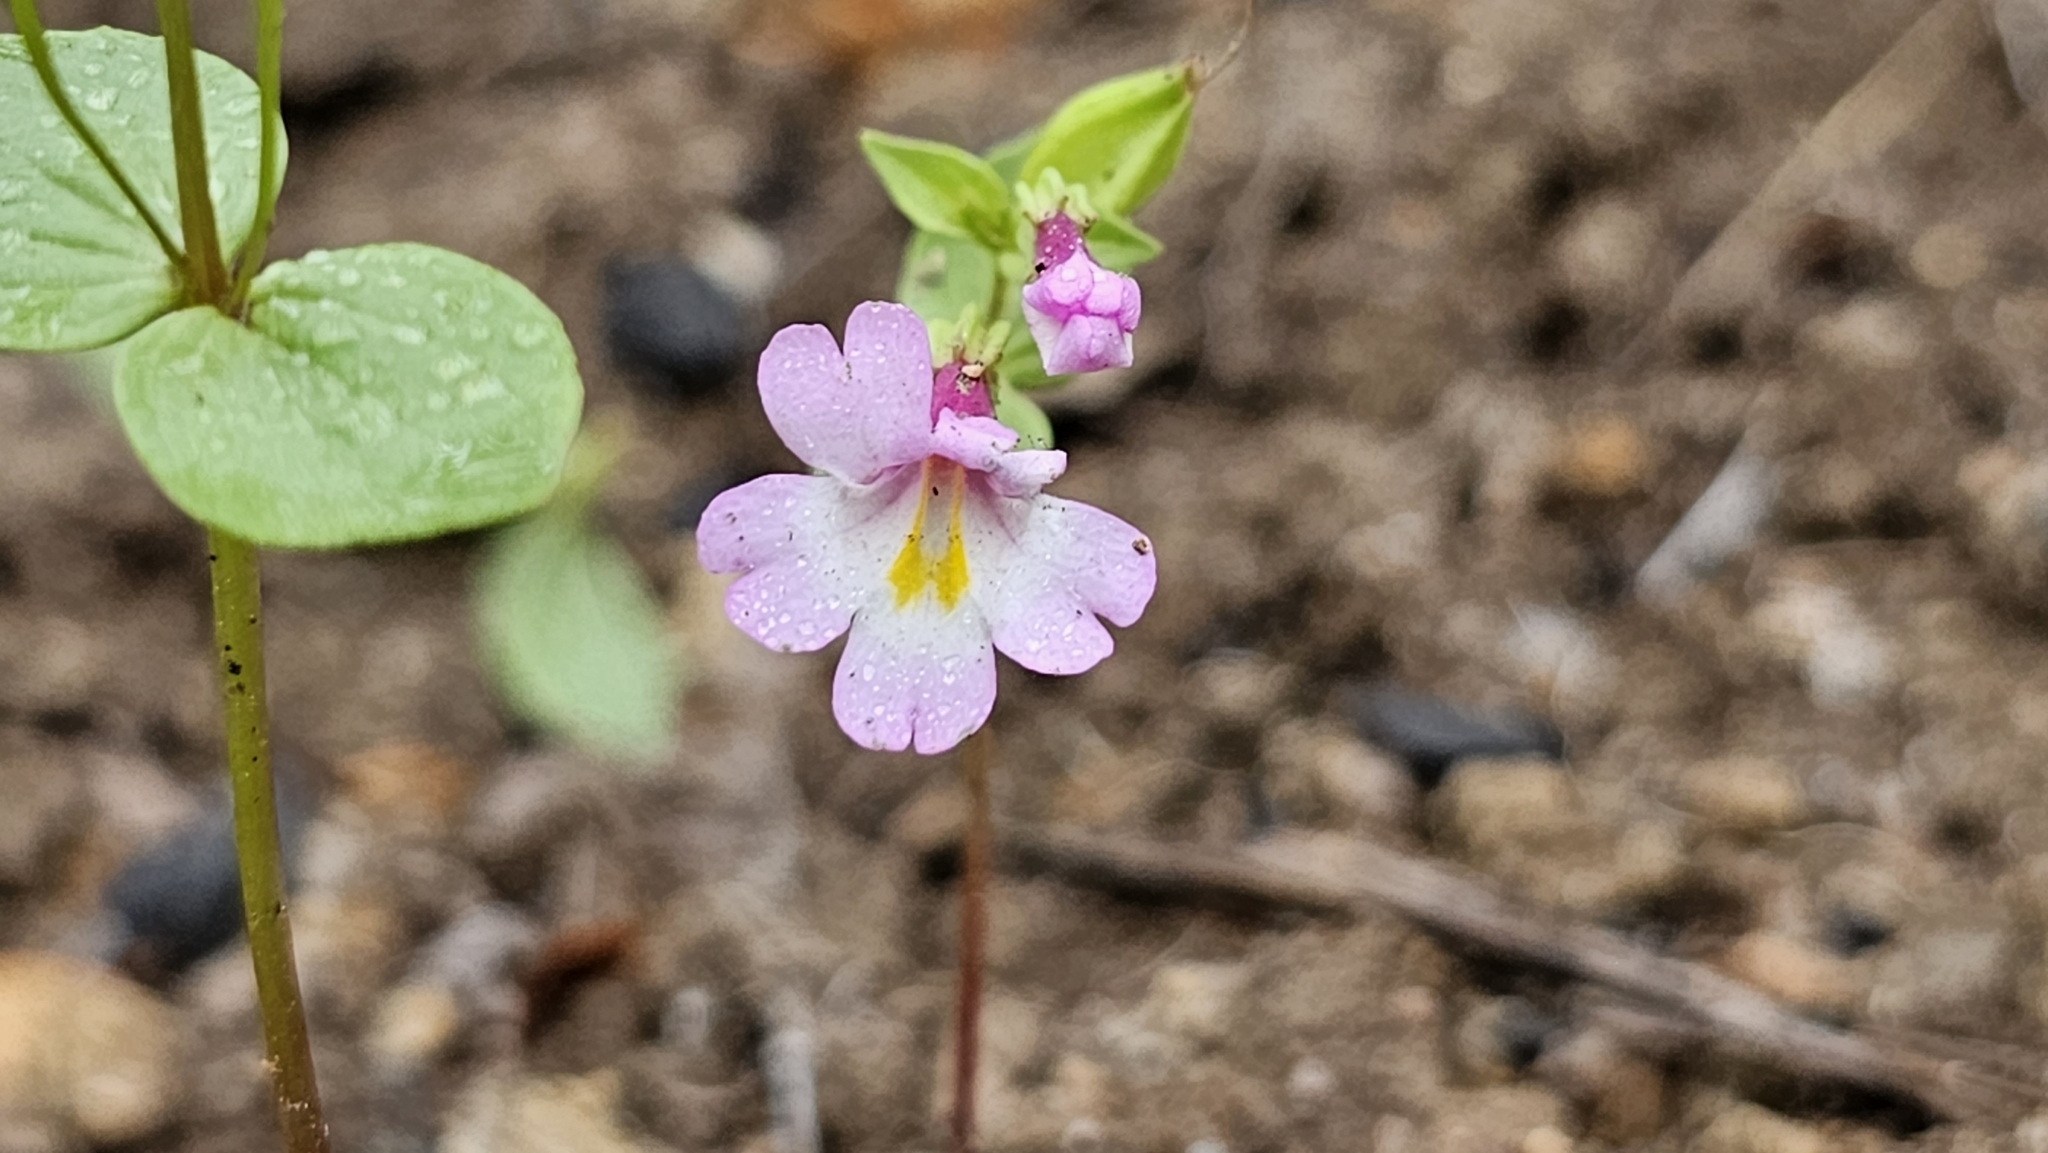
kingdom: Plantae
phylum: Tracheophyta
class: Magnoliopsida
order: Lamiales
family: Phrymaceae
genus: Erythranthe
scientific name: Erythranthe acutidens
